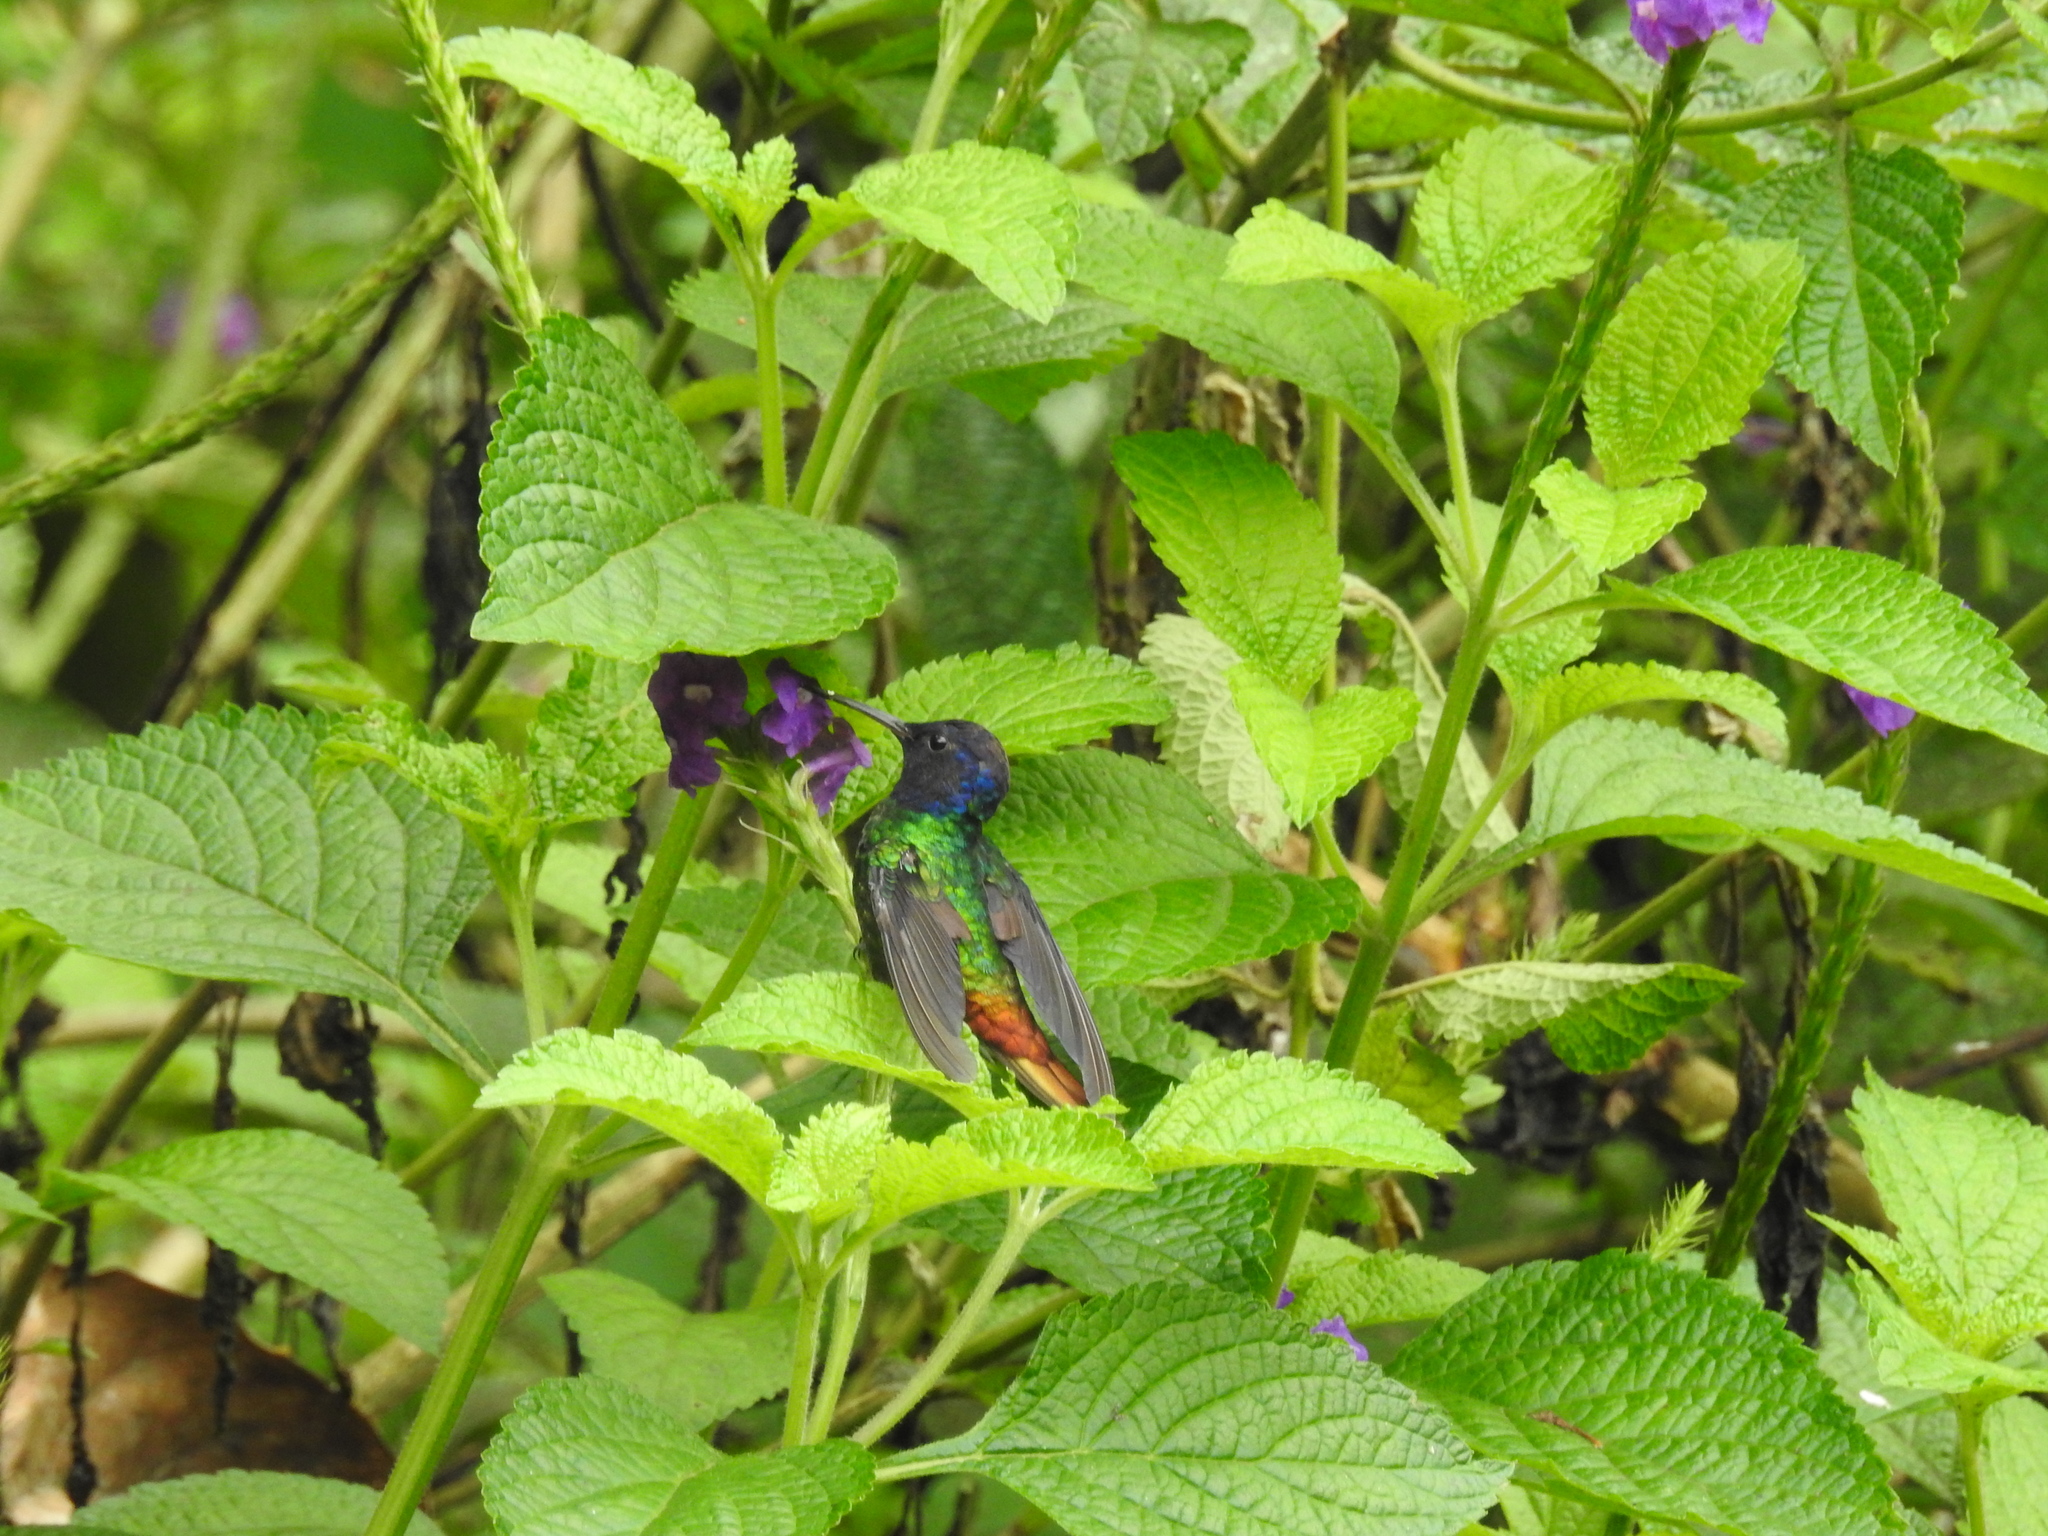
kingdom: Animalia
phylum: Chordata
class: Aves
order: Apodiformes
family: Trochilidae
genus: Chrysuronia
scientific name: Chrysuronia oenone
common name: Golden-tailed sapphire
